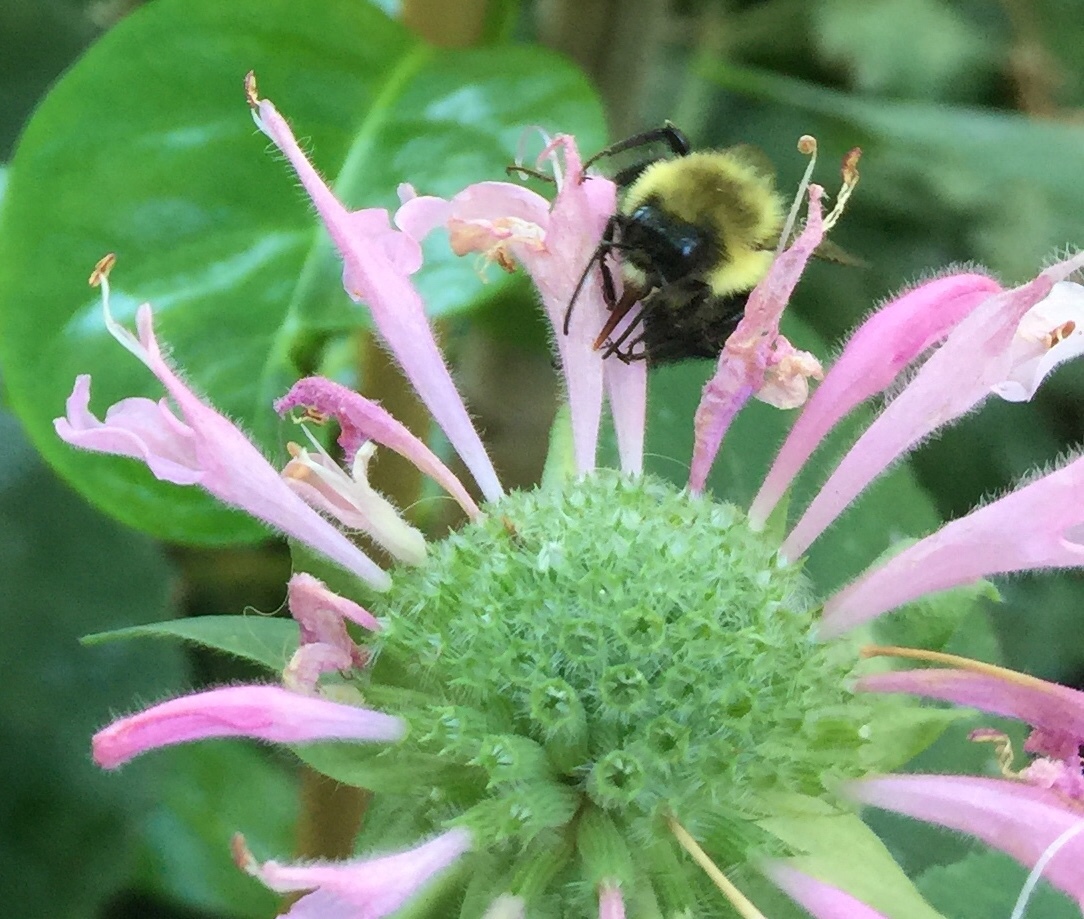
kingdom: Animalia
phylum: Arthropoda
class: Insecta
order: Hymenoptera
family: Apidae
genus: Bombus
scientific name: Bombus impatiens
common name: Common eastern bumble bee
